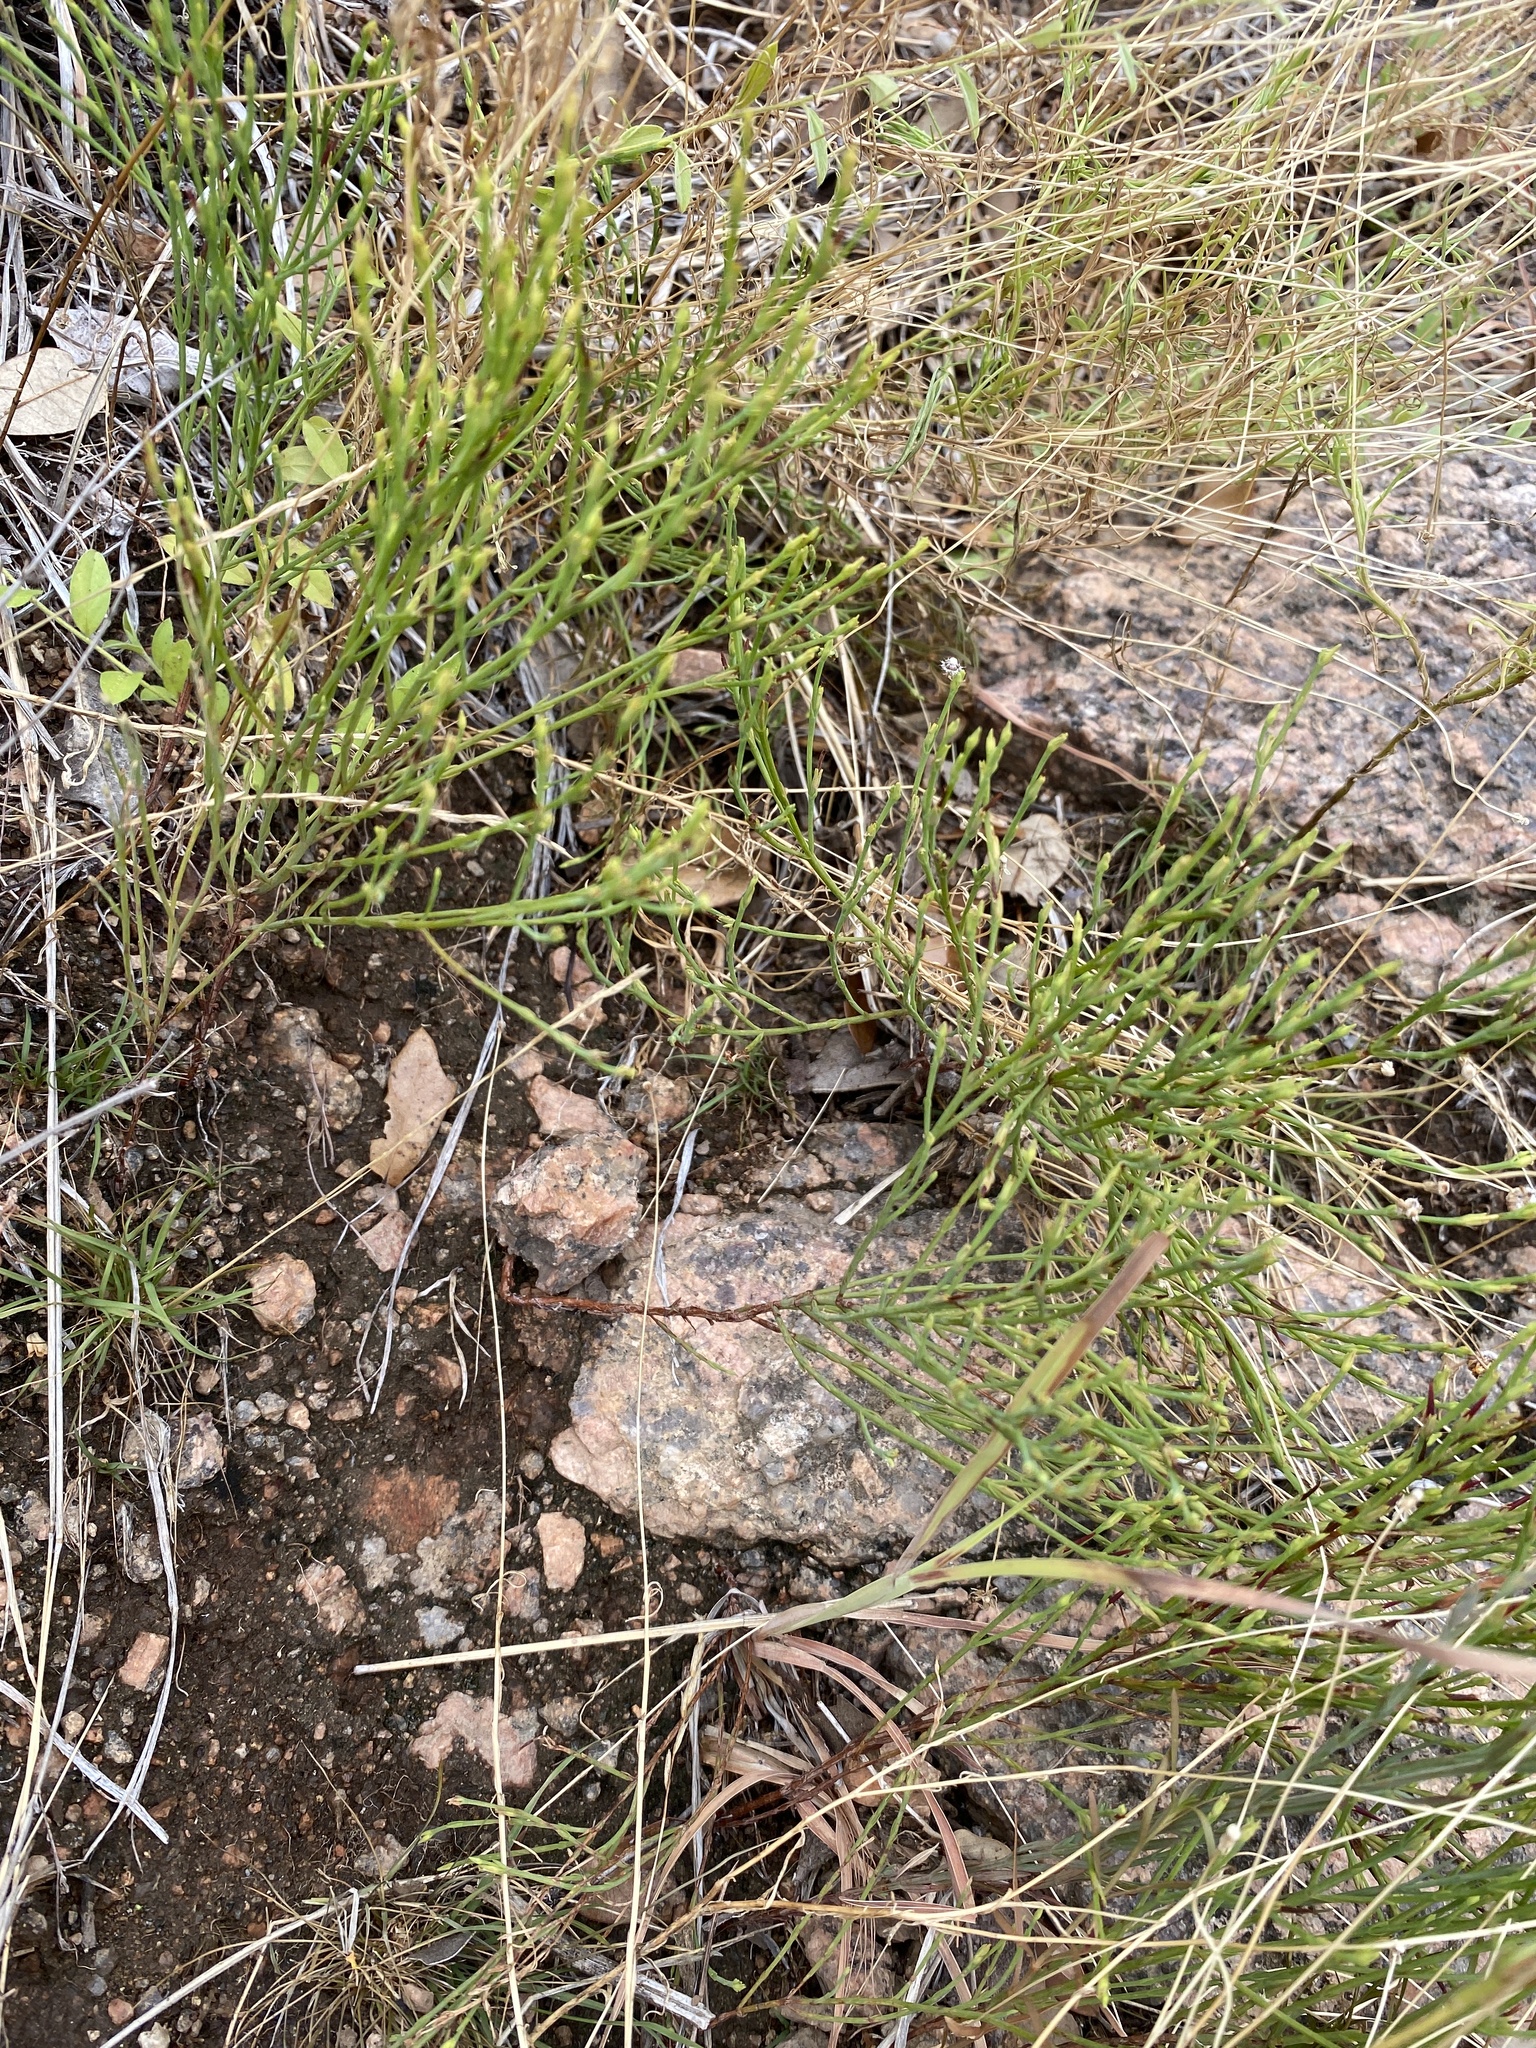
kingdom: Plantae
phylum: Tracheophyta
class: Magnoliopsida
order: Malpighiales
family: Hypericaceae
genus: Hypericum
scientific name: Hypericum gentianoides
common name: Gentian-leaved st. john's-wort
